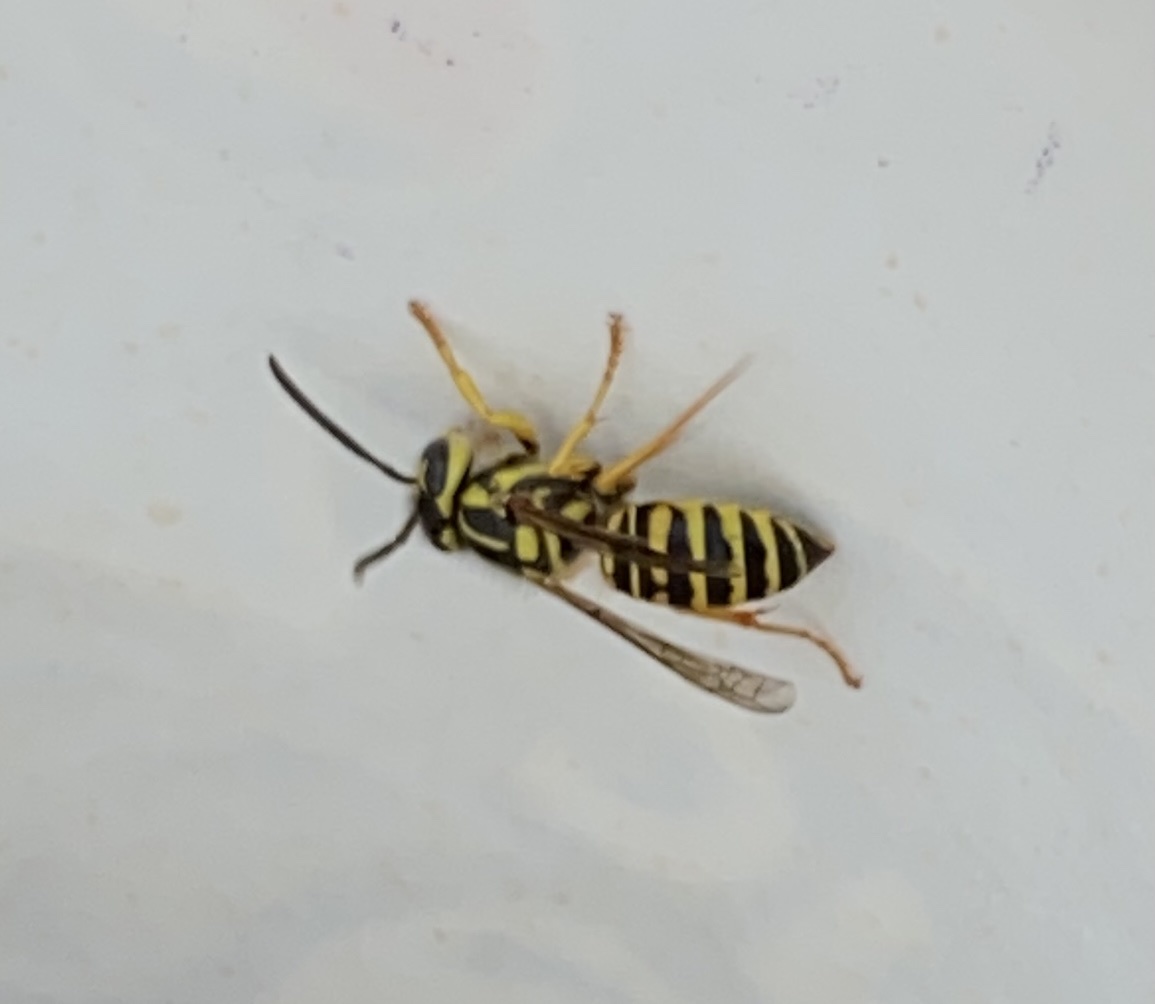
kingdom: Animalia
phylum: Arthropoda
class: Insecta
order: Hymenoptera
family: Vespidae
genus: Vespula
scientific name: Vespula squamosa
